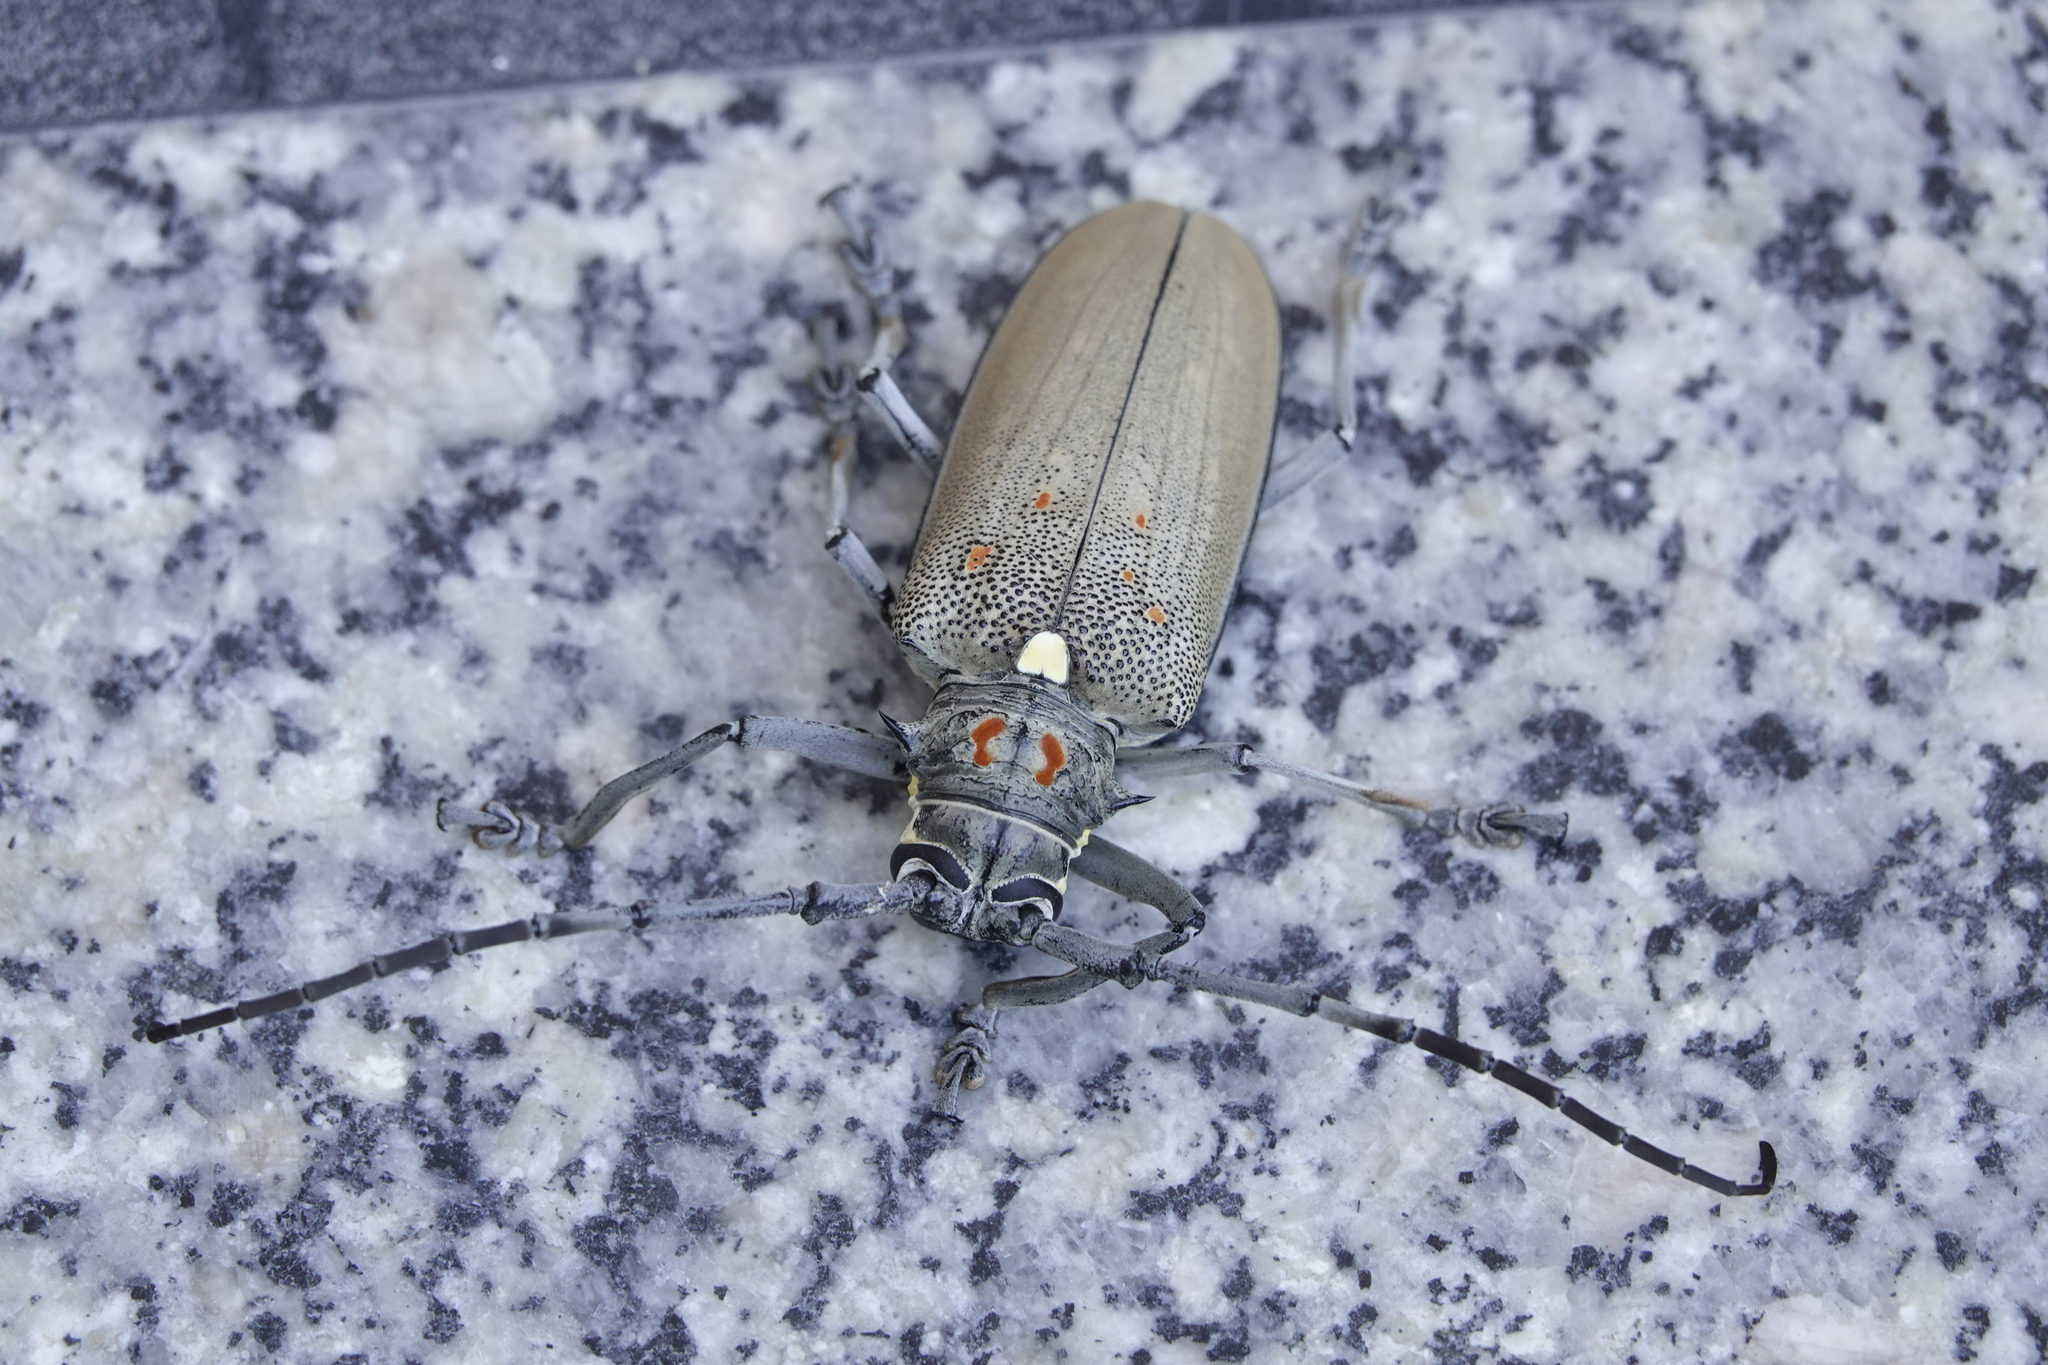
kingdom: Animalia
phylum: Arthropoda
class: Insecta
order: Coleoptera
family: Cerambycidae
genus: Batocera
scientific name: Batocera rufomaculata
